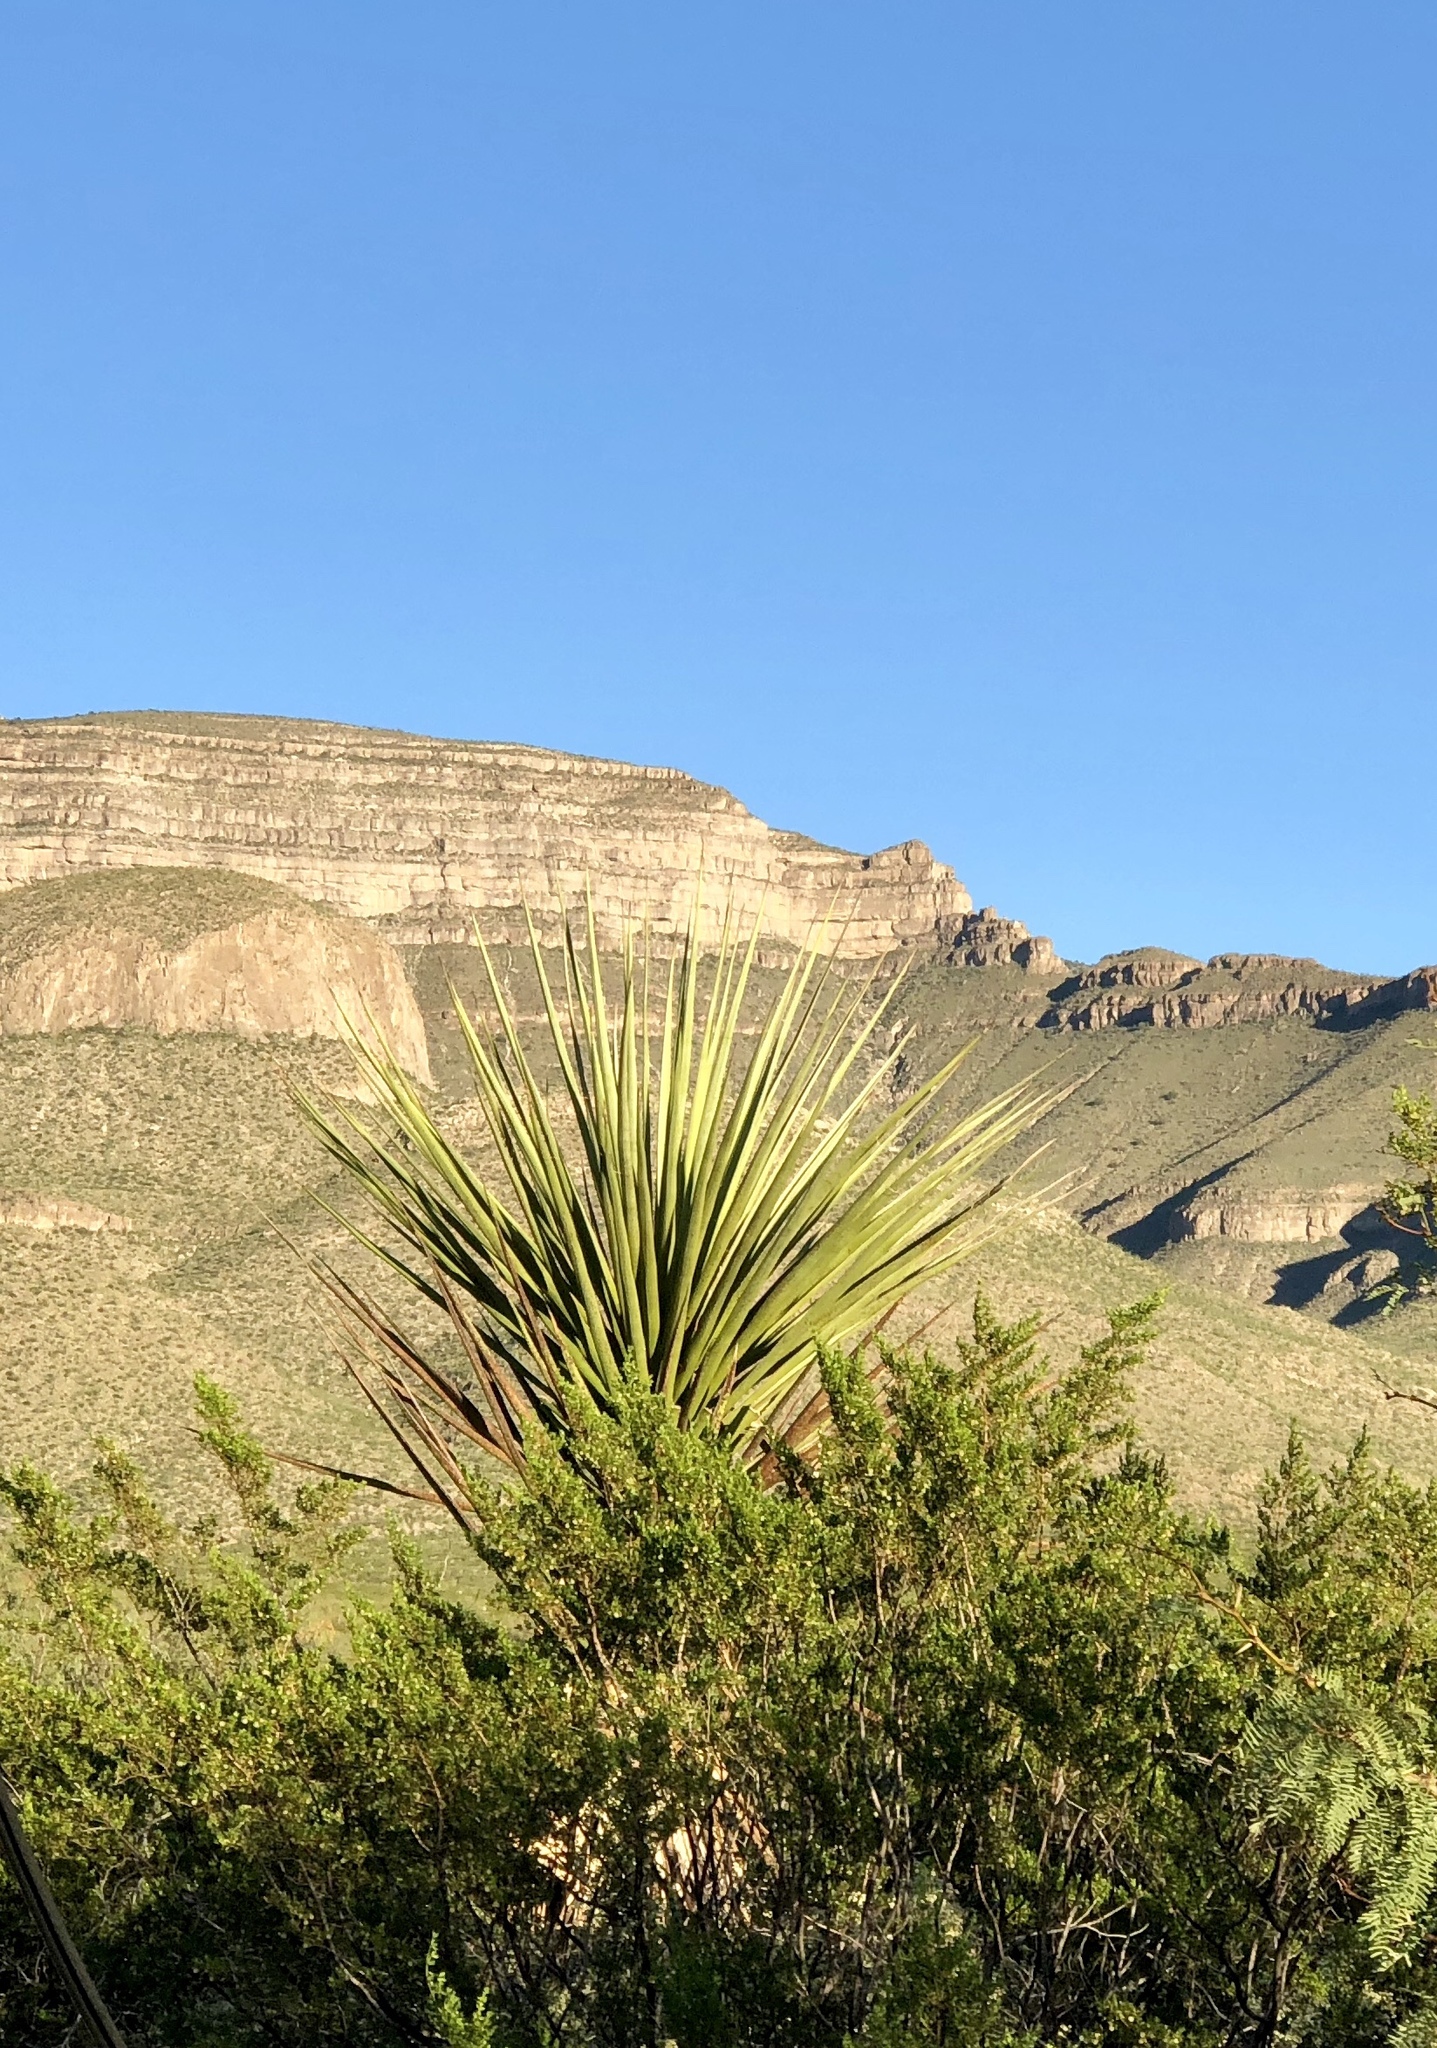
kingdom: Plantae
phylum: Tracheophyta
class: Liliopsida
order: Asparagales
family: Asparagaceae
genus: Yucca
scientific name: Yucca treculiana
